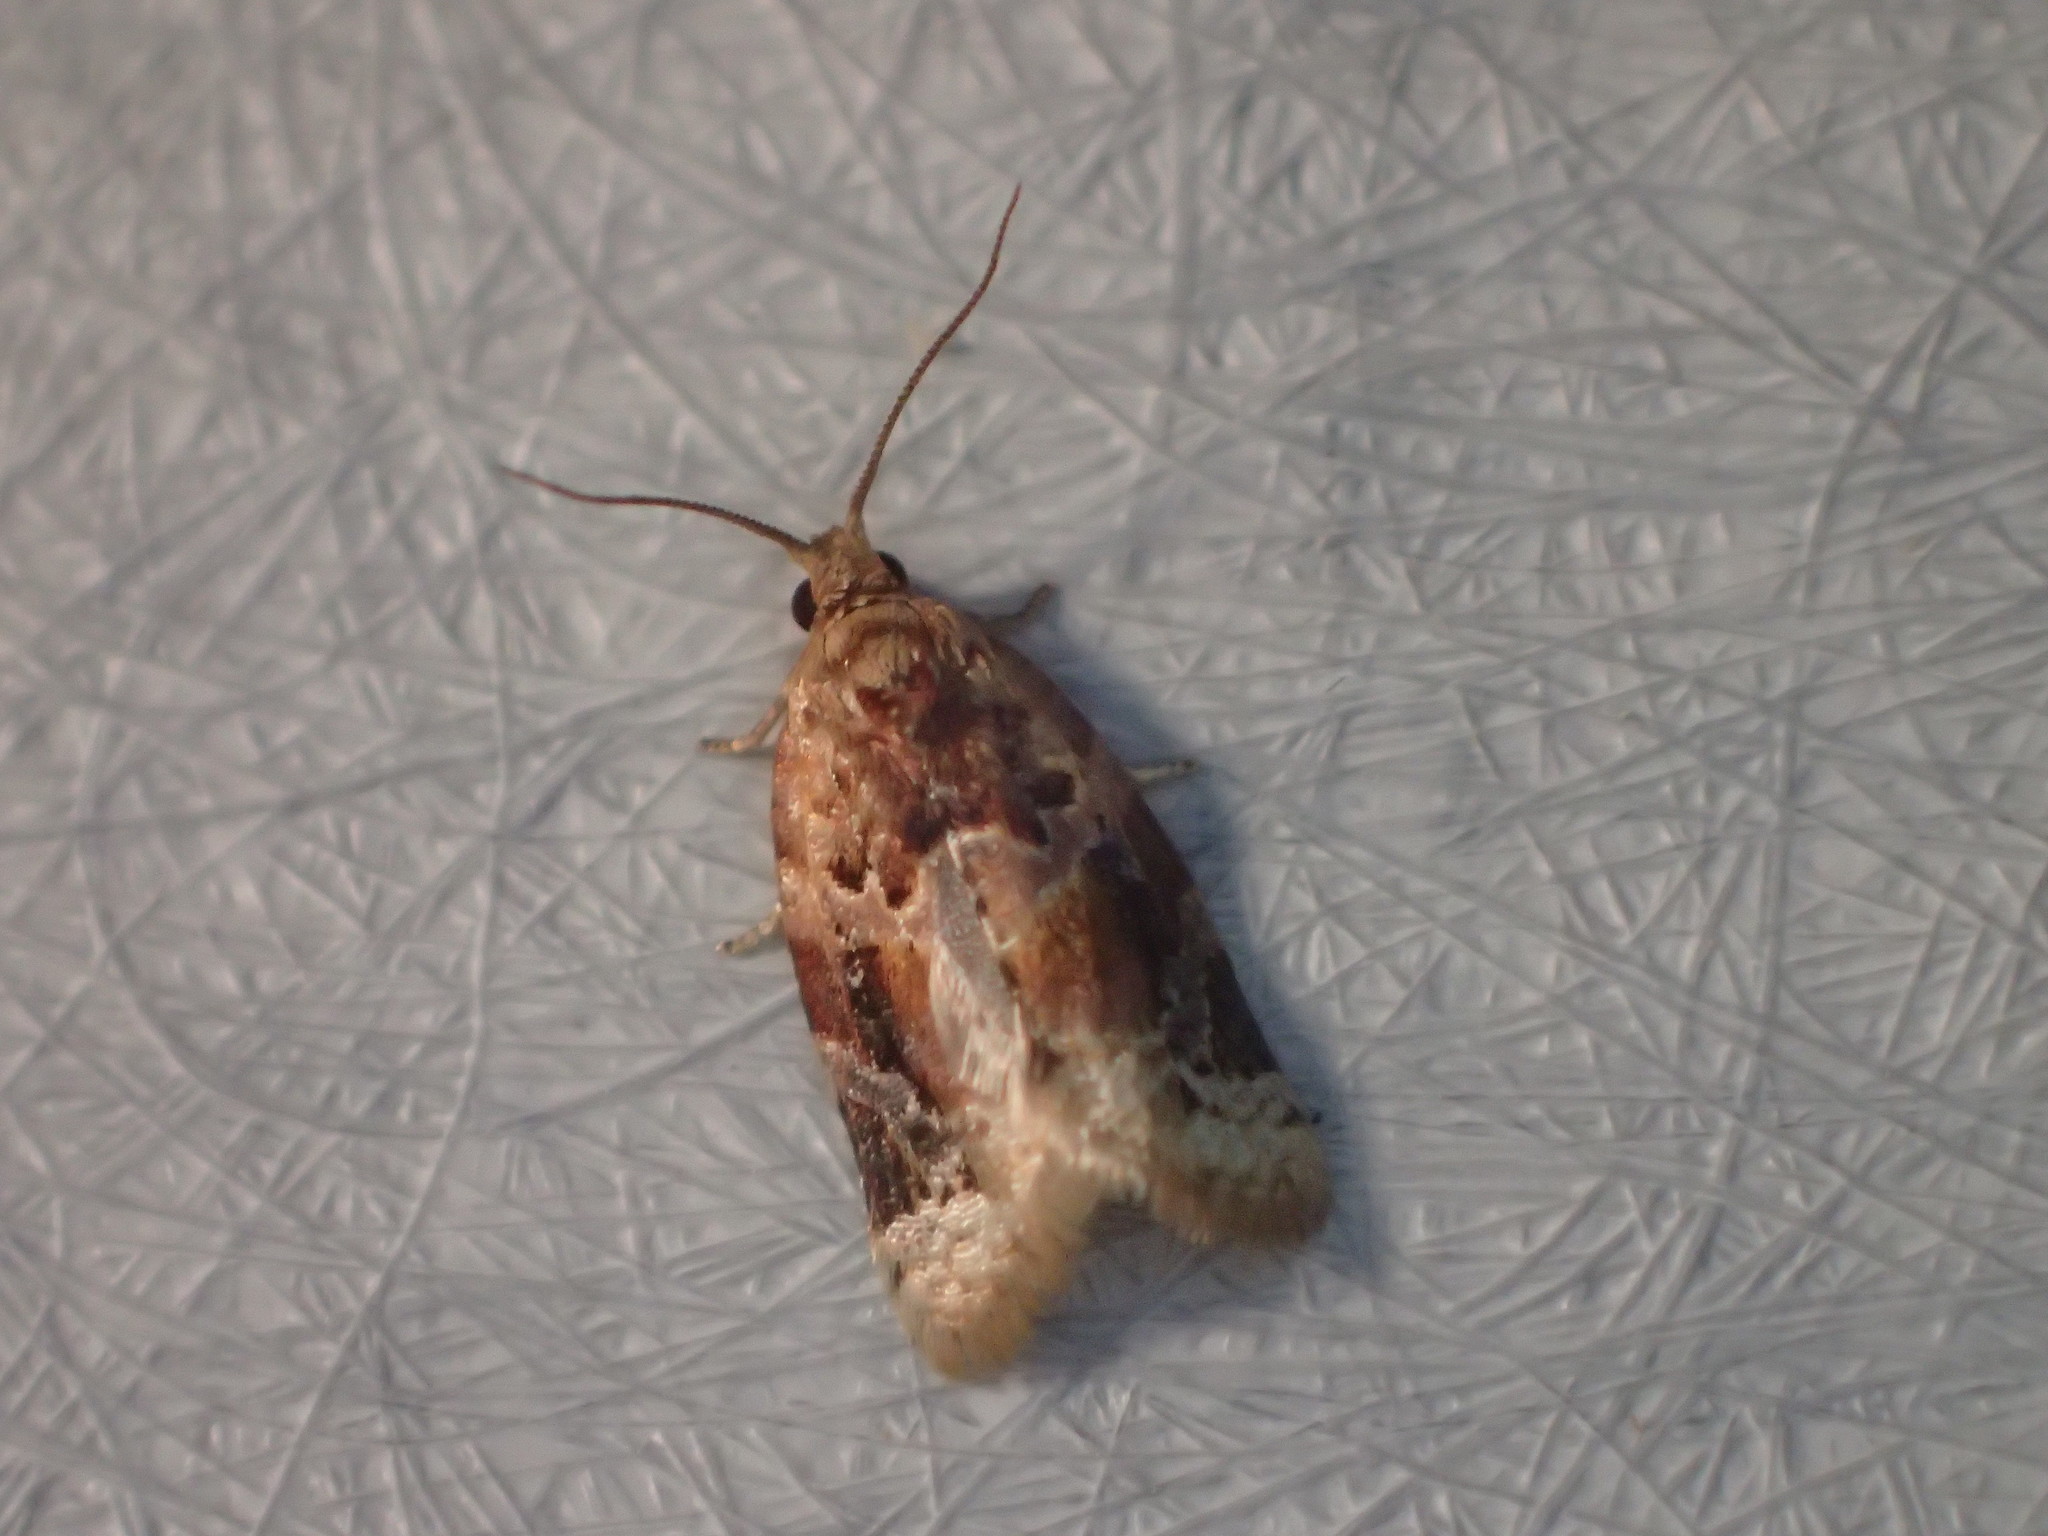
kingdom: Animalia
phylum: Arthropoda
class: Insecta
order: Lepidoptera
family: Tortricidae
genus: Argyrotaenia
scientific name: Argyrotaenia velutinana
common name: Red-banded leafroller moth
